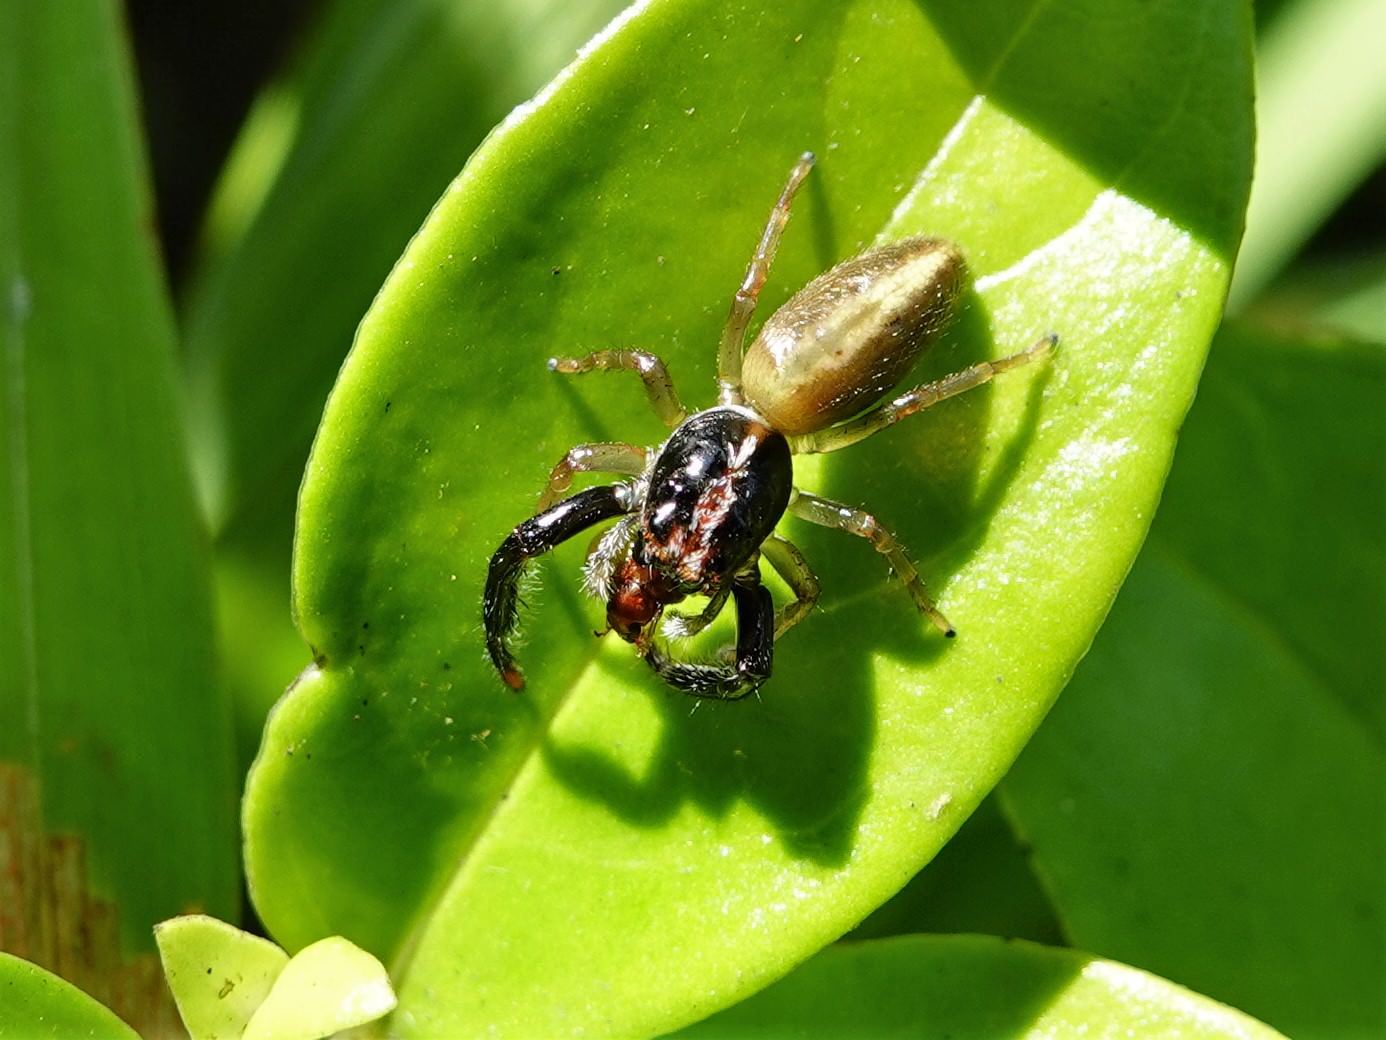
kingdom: Animalia
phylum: Arthropoda
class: Arachnida
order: Araneae
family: Salticidae
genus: Trite
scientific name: Trite planiceps
